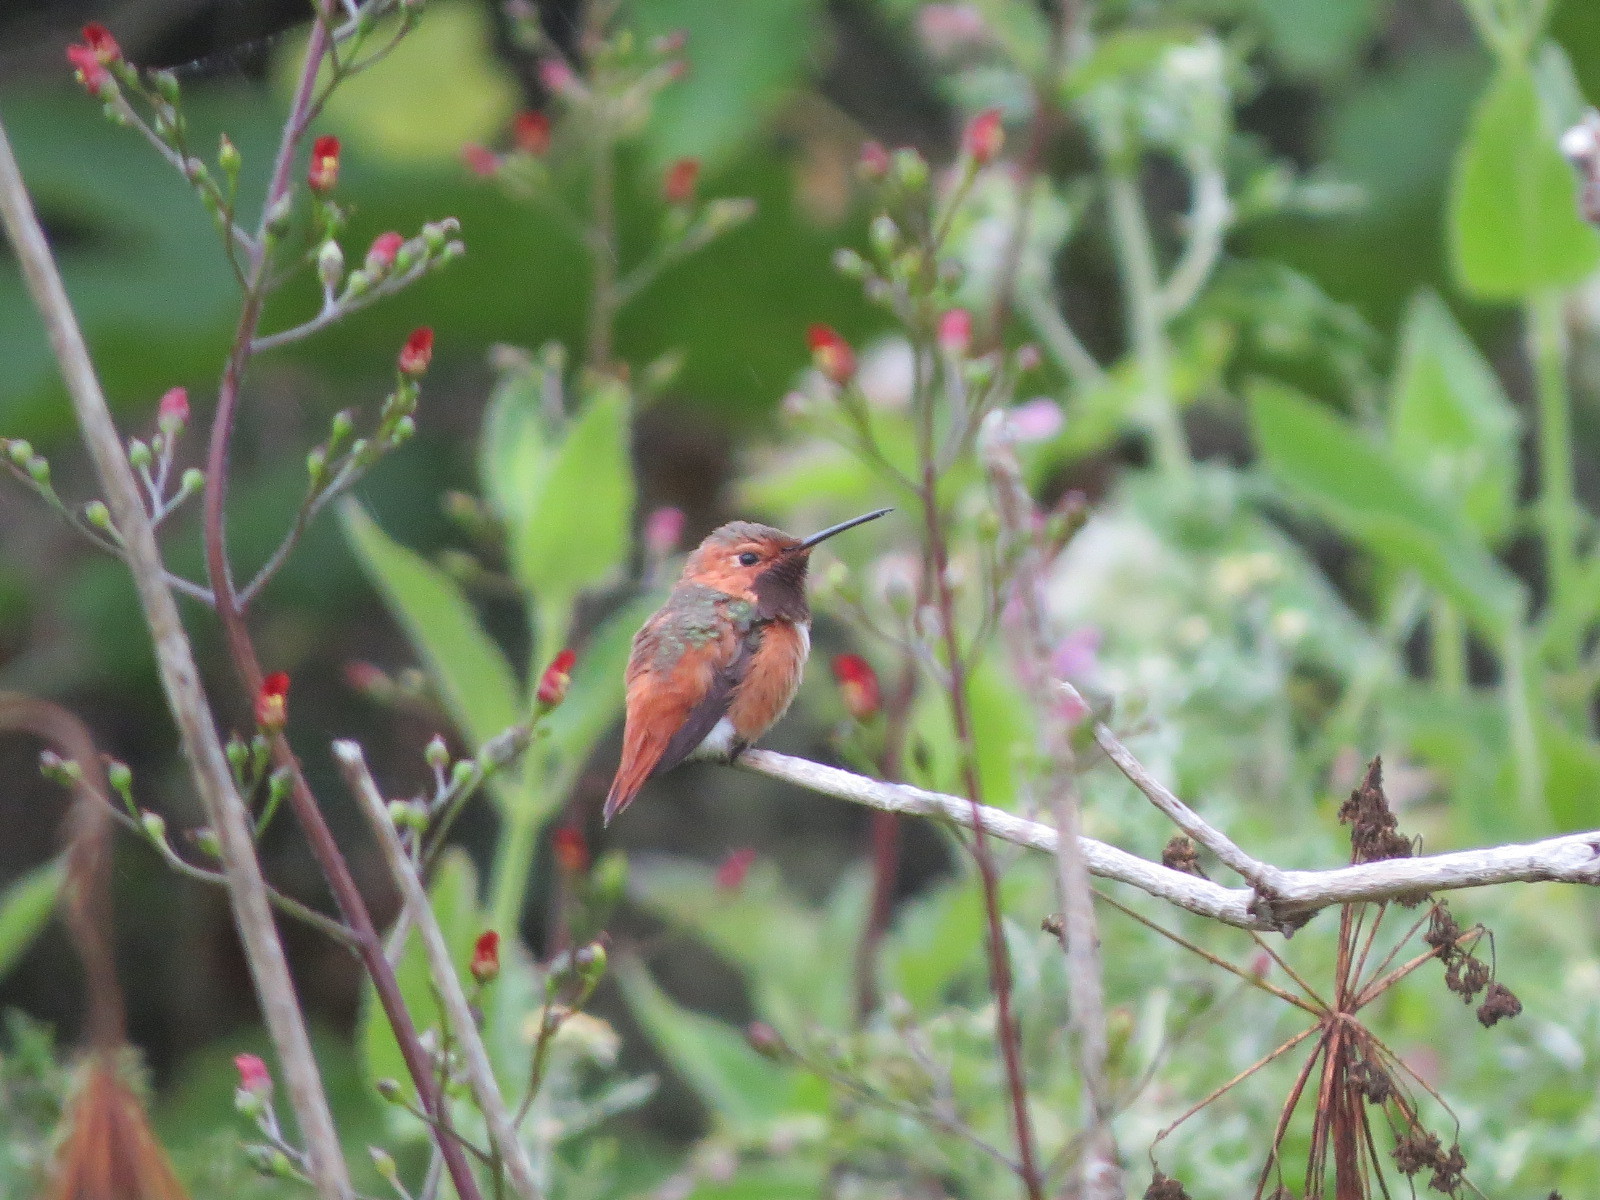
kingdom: Animalia
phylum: Chordata
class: Aves
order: Apodiformes
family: Trochilidae
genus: Selasphorus
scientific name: Selasphorus sasin
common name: Allen's hummingbird
